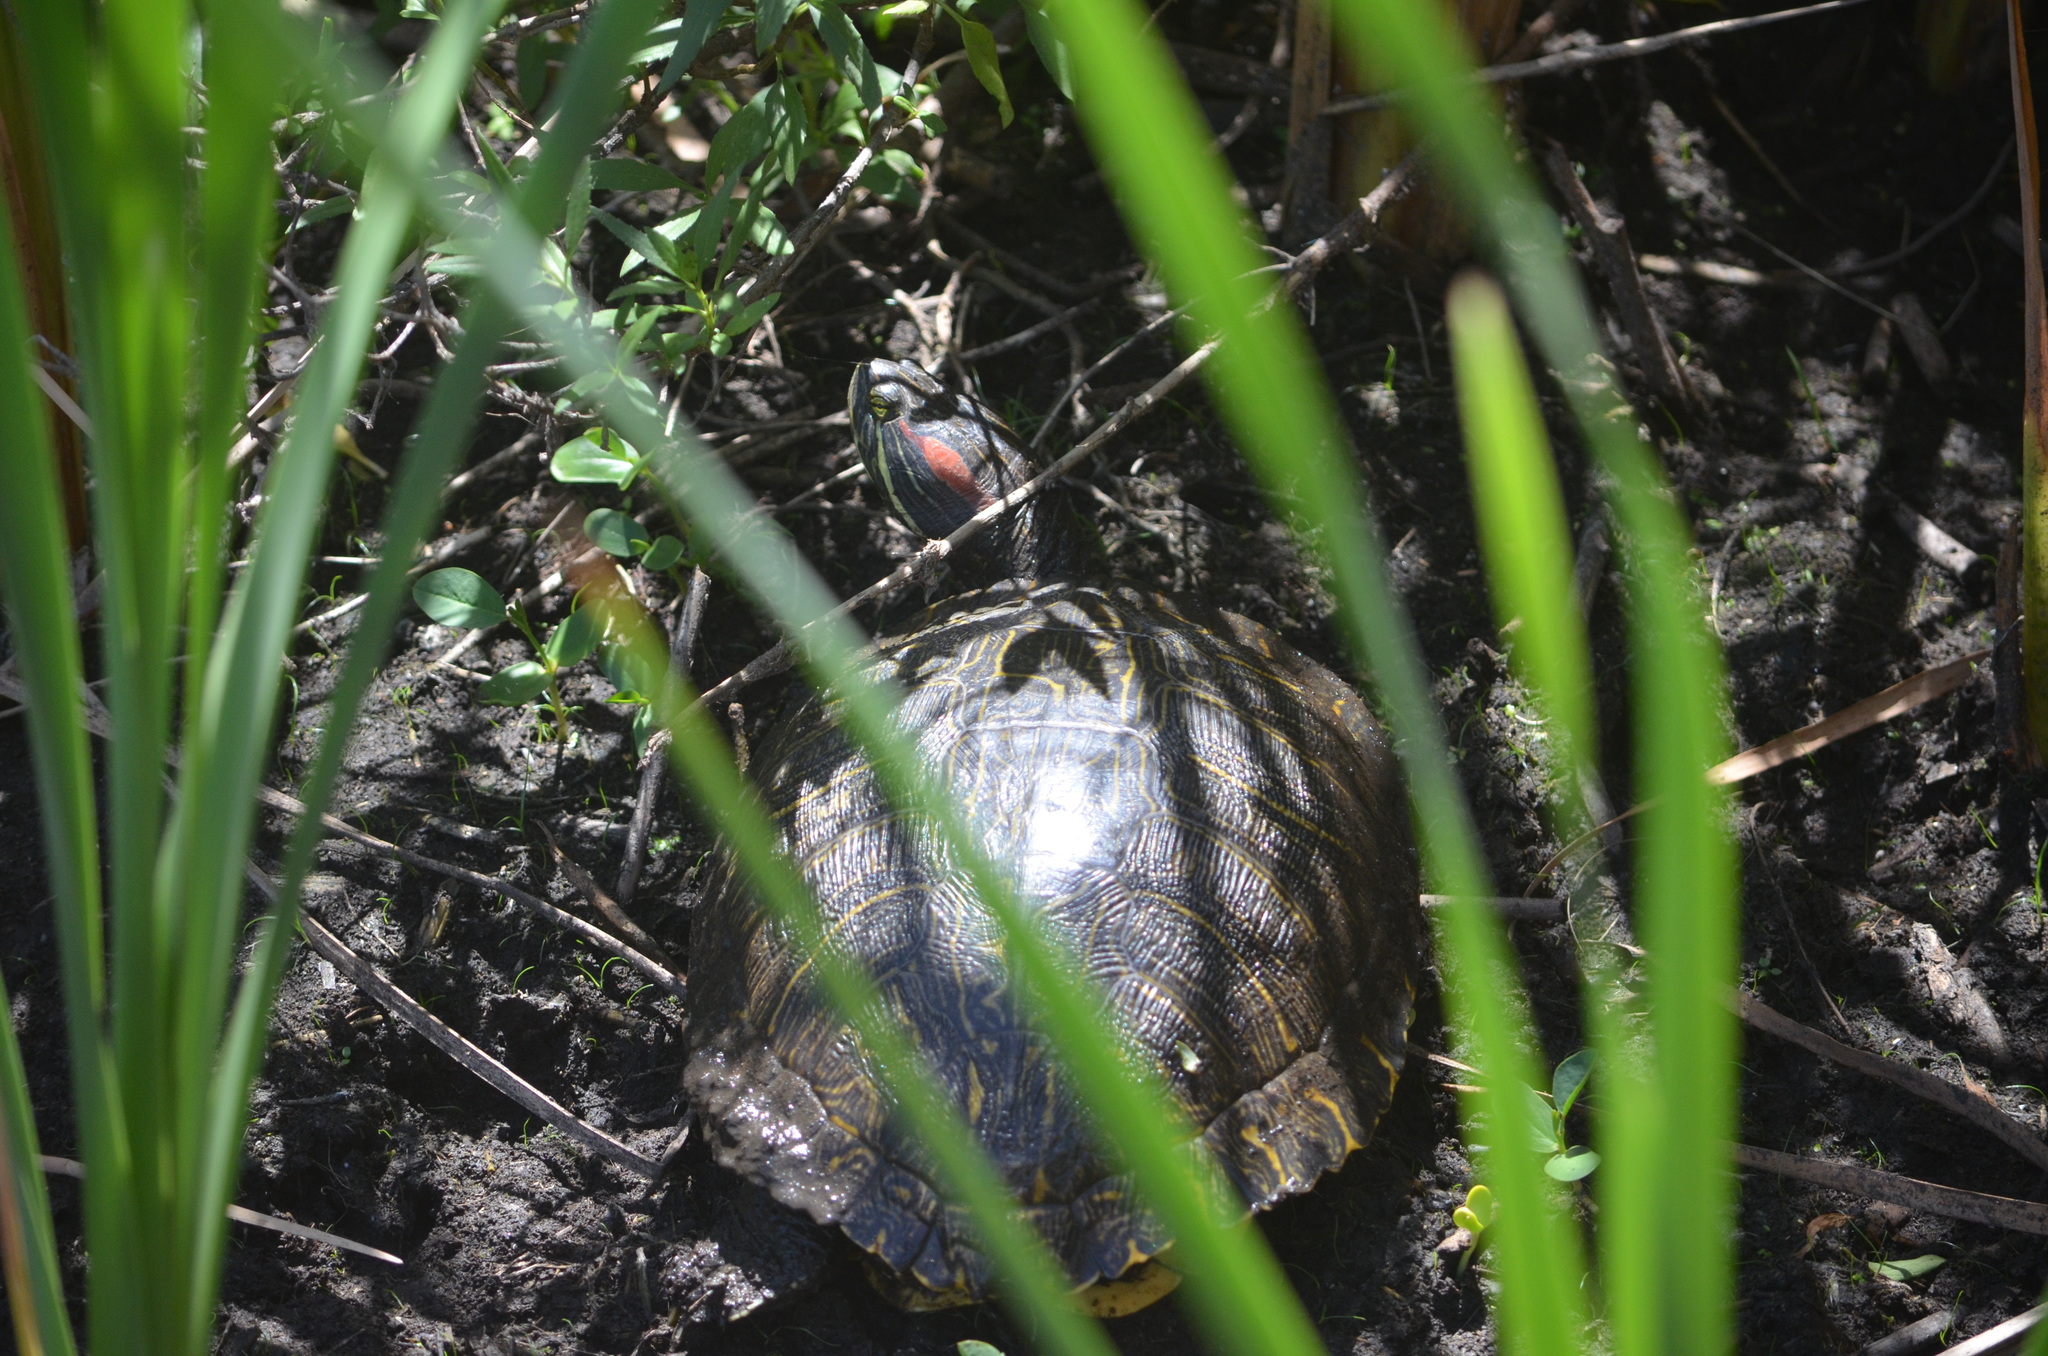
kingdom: Animalia
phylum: Chordata
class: Testudines
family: Emydidae
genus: Trachemys
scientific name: Trachemys scripta
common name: Slider
